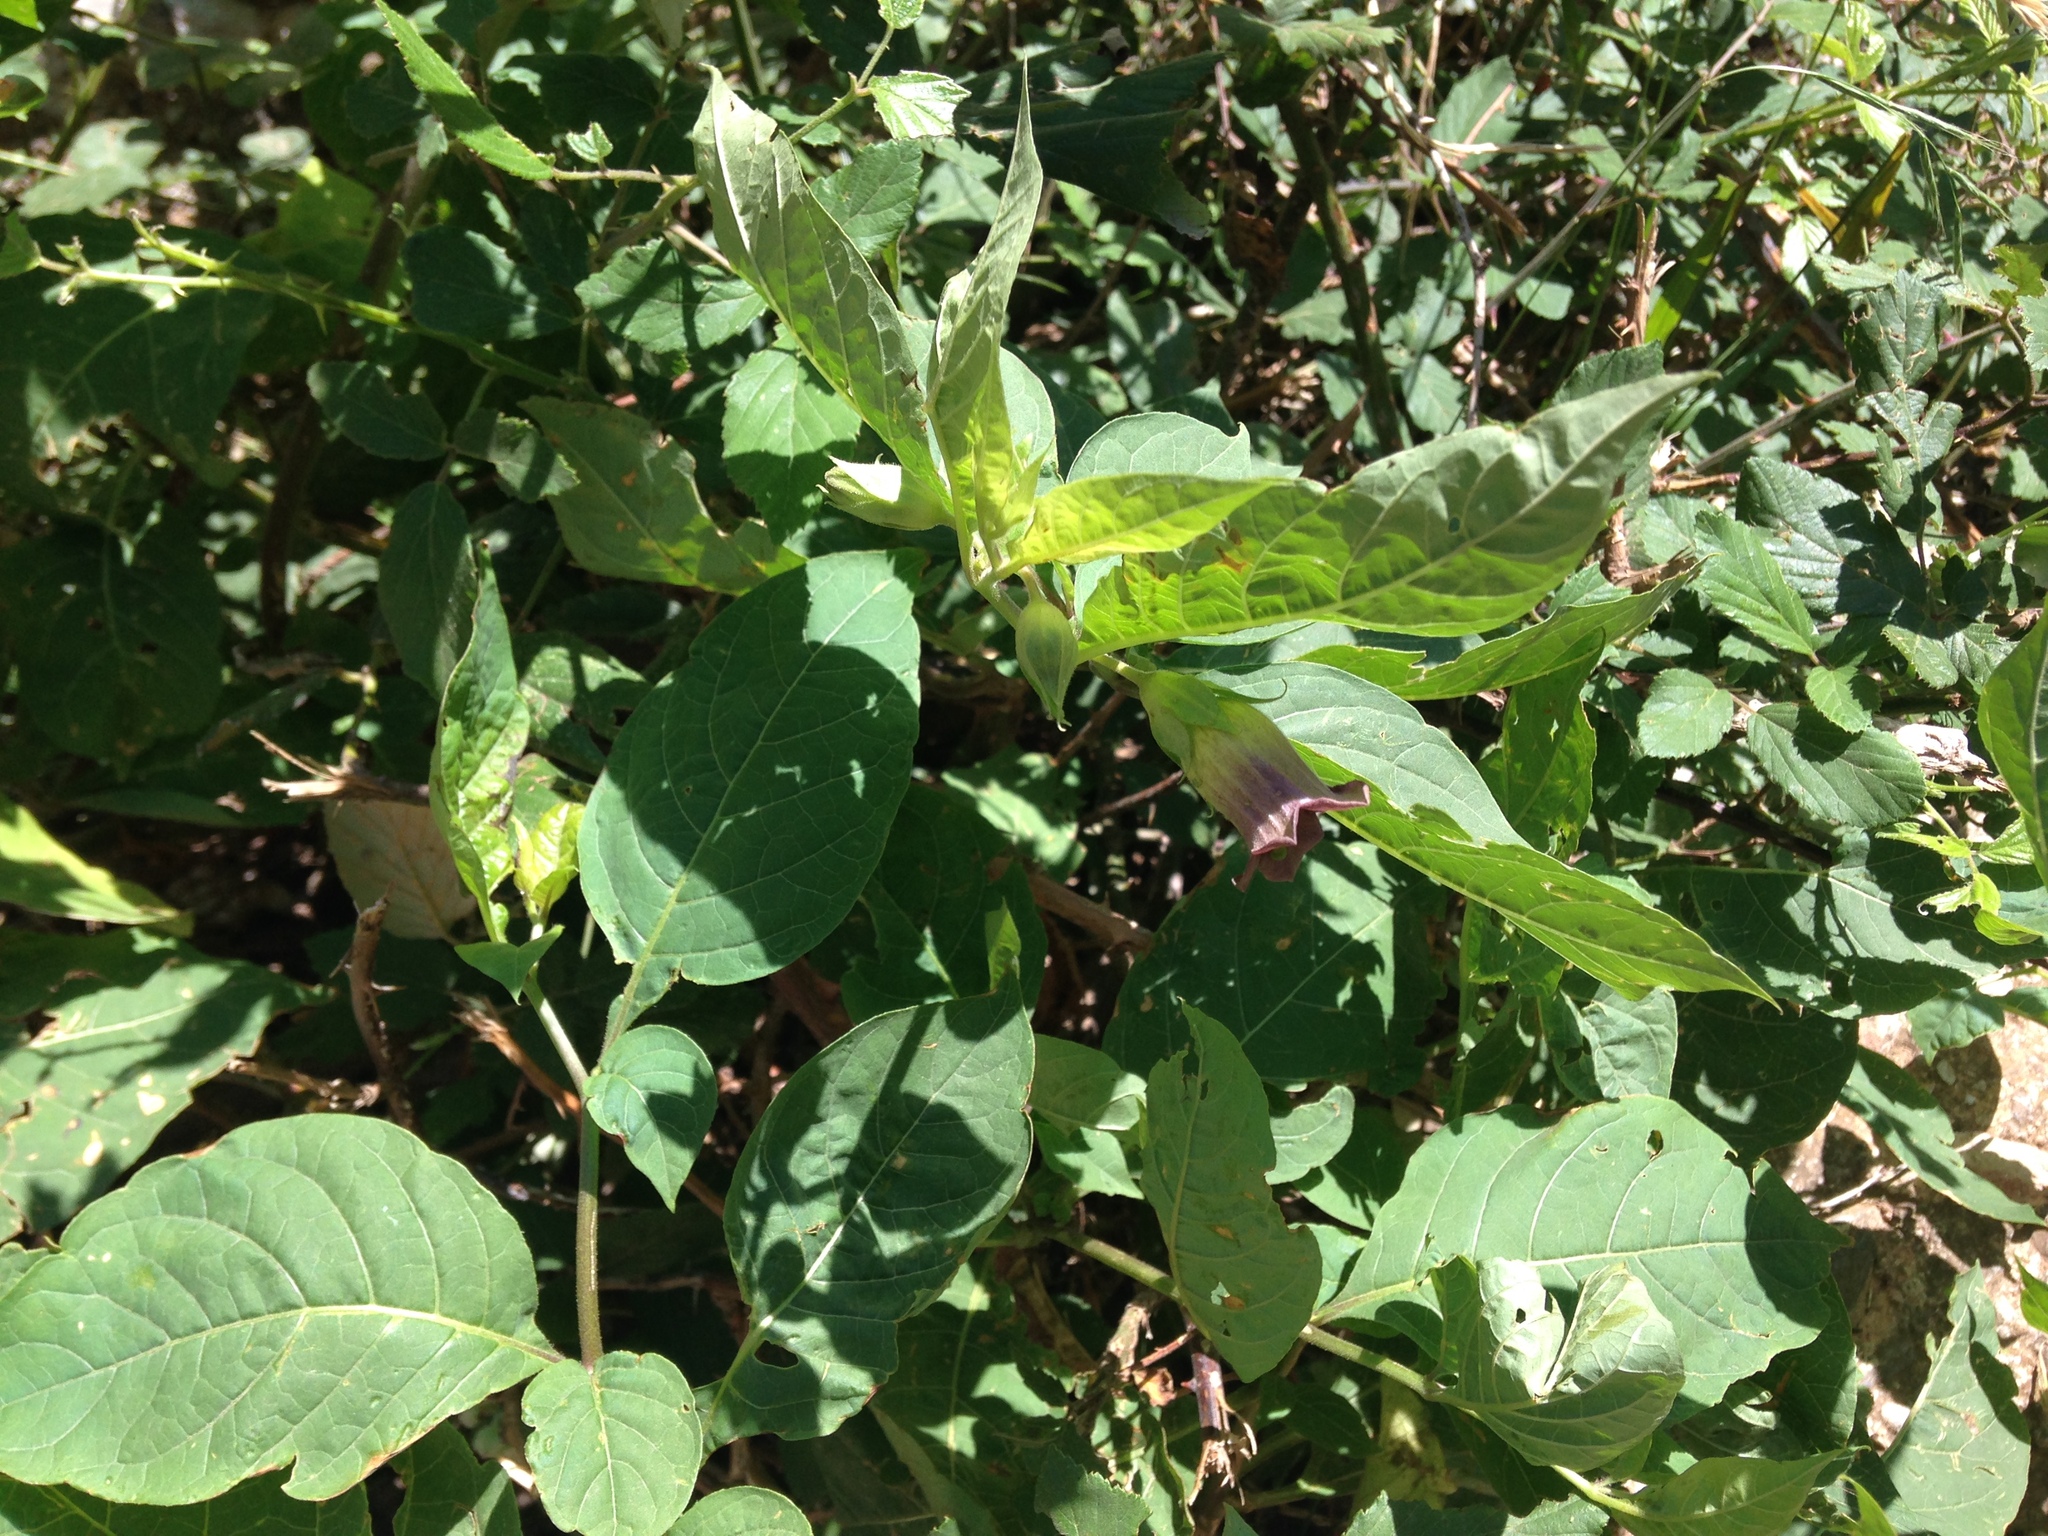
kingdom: Plantae
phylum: Tracheophyta
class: Magnoliopsida
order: Solanales
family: Solanaceae
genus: Atropa
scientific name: Atropa belladonna
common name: Deadly nightshade
